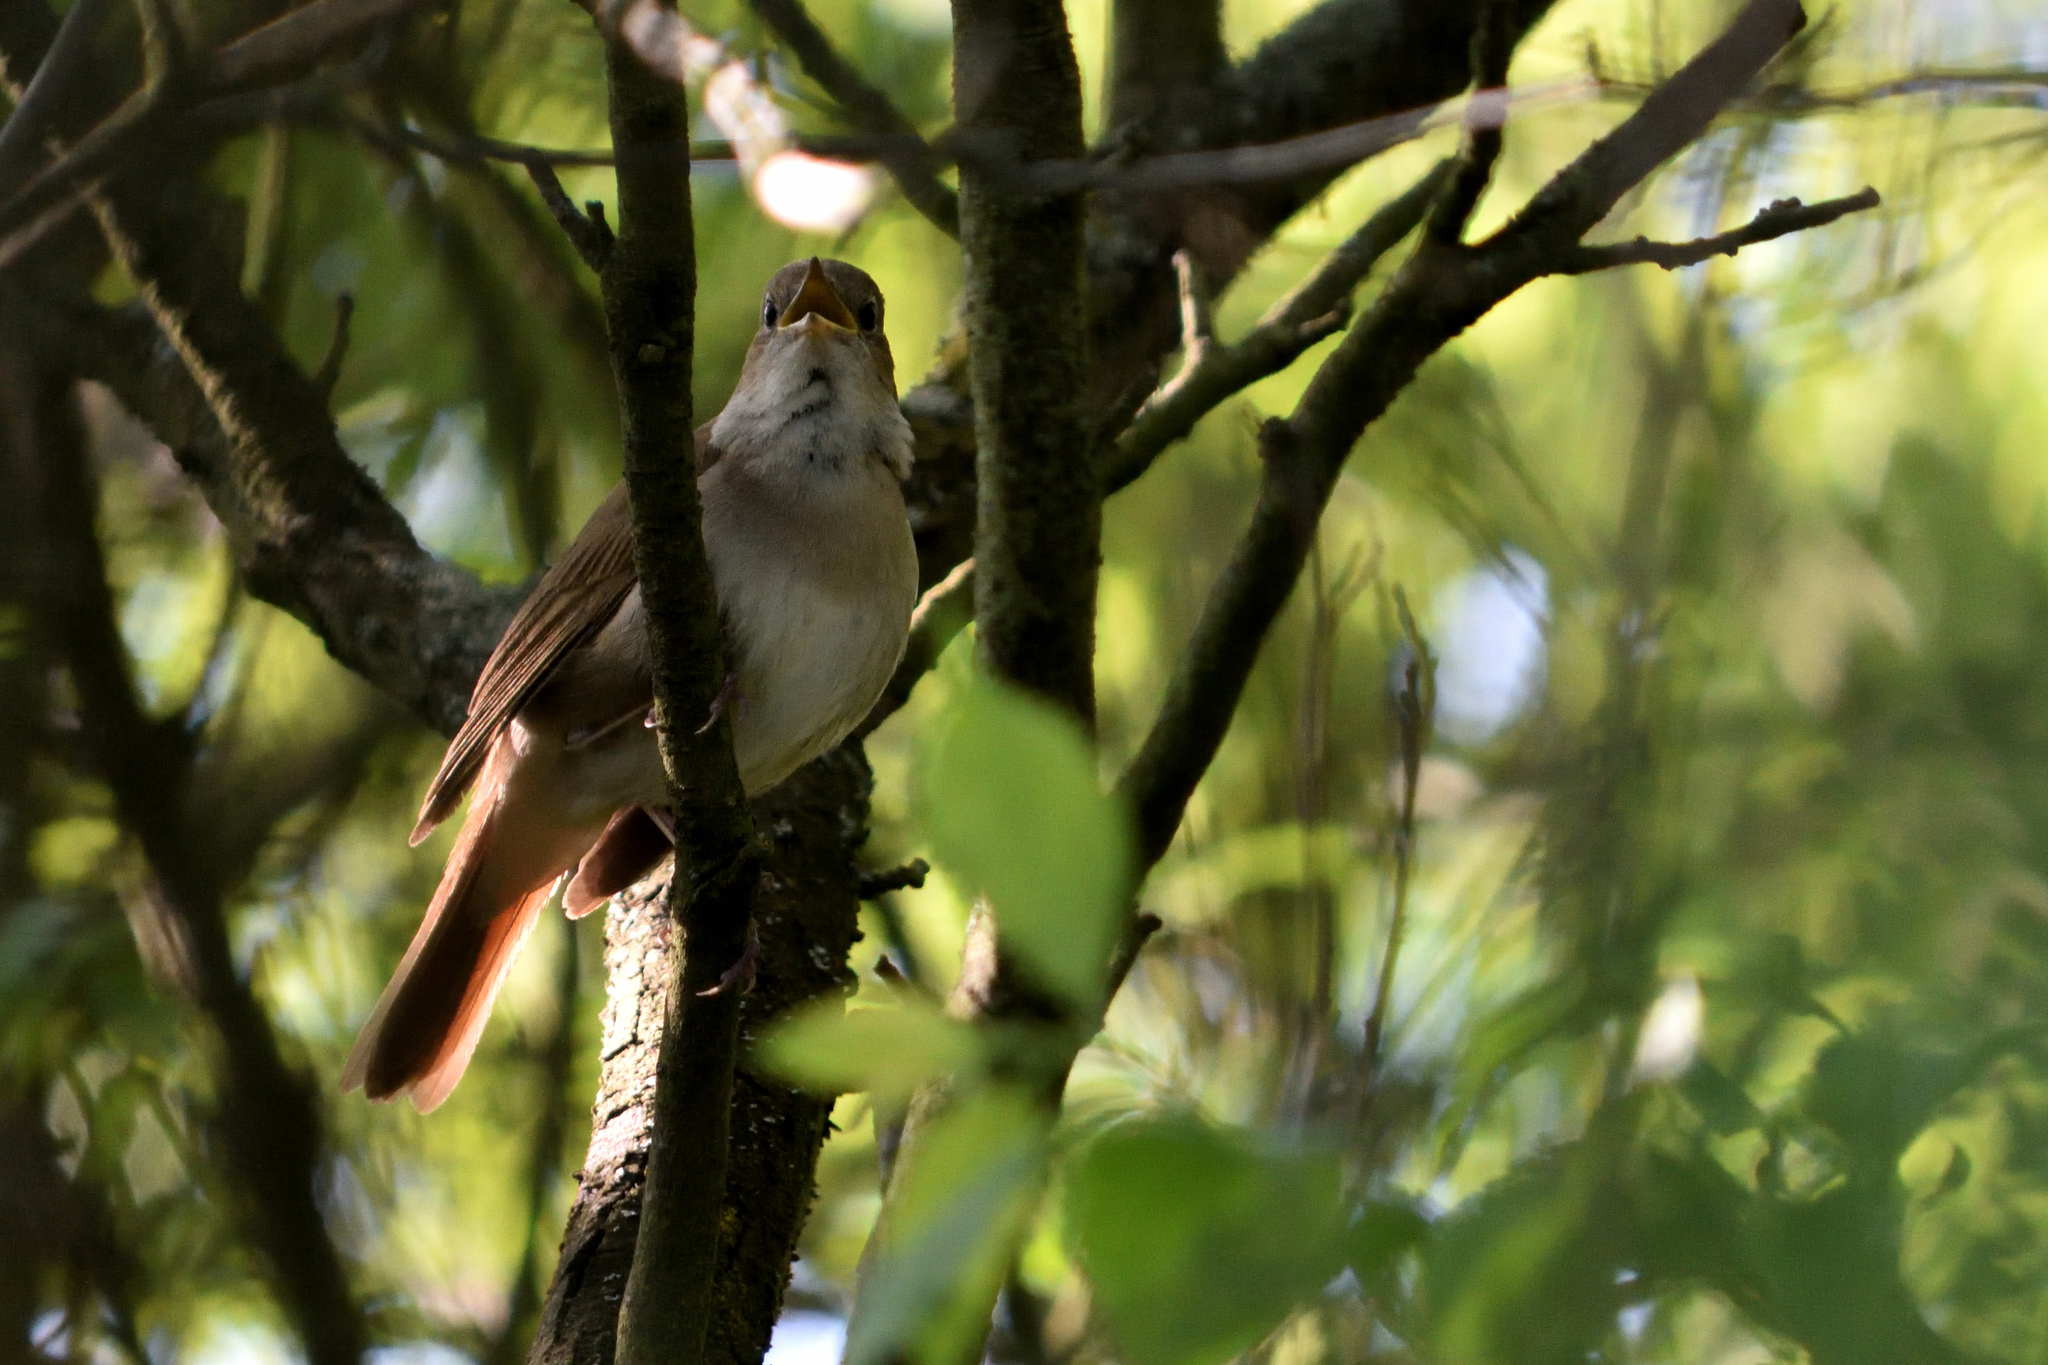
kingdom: Animalia
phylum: Chordata
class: Aves
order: Passeriformes
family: Muscicapidae
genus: Luscinia
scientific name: Luscinia megarhynchos
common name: Common nightingale
